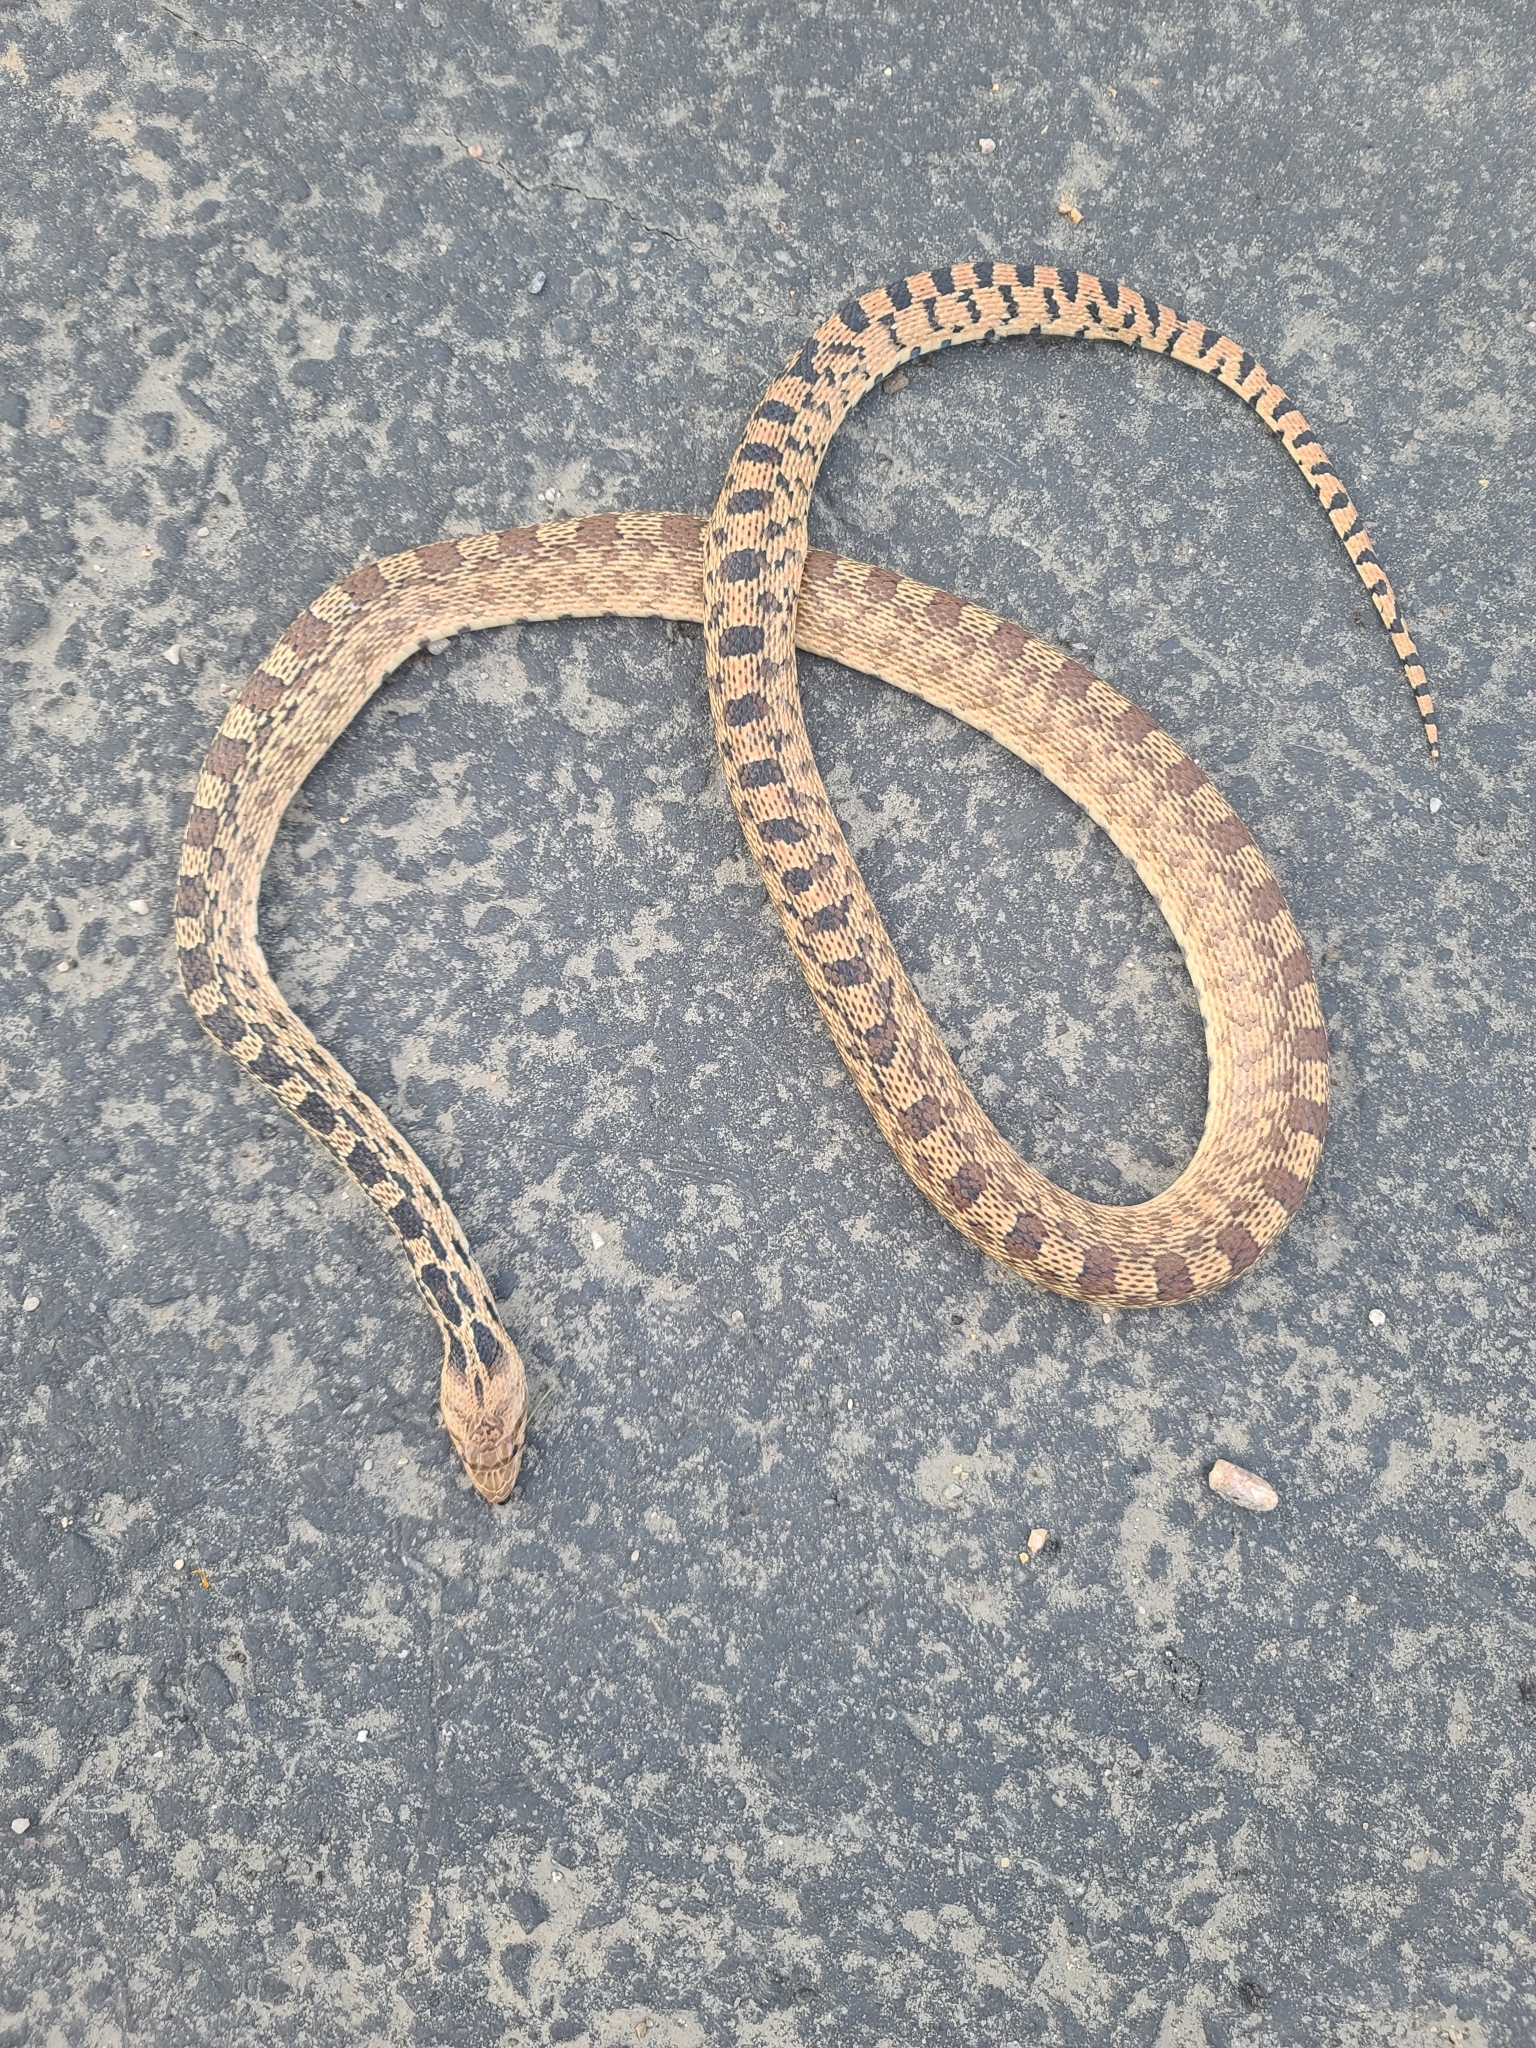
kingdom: Animalia
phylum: Chordata
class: Squamata
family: Colubridae
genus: Pituophis
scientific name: Pituophis catenifer
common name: Gopher snake
